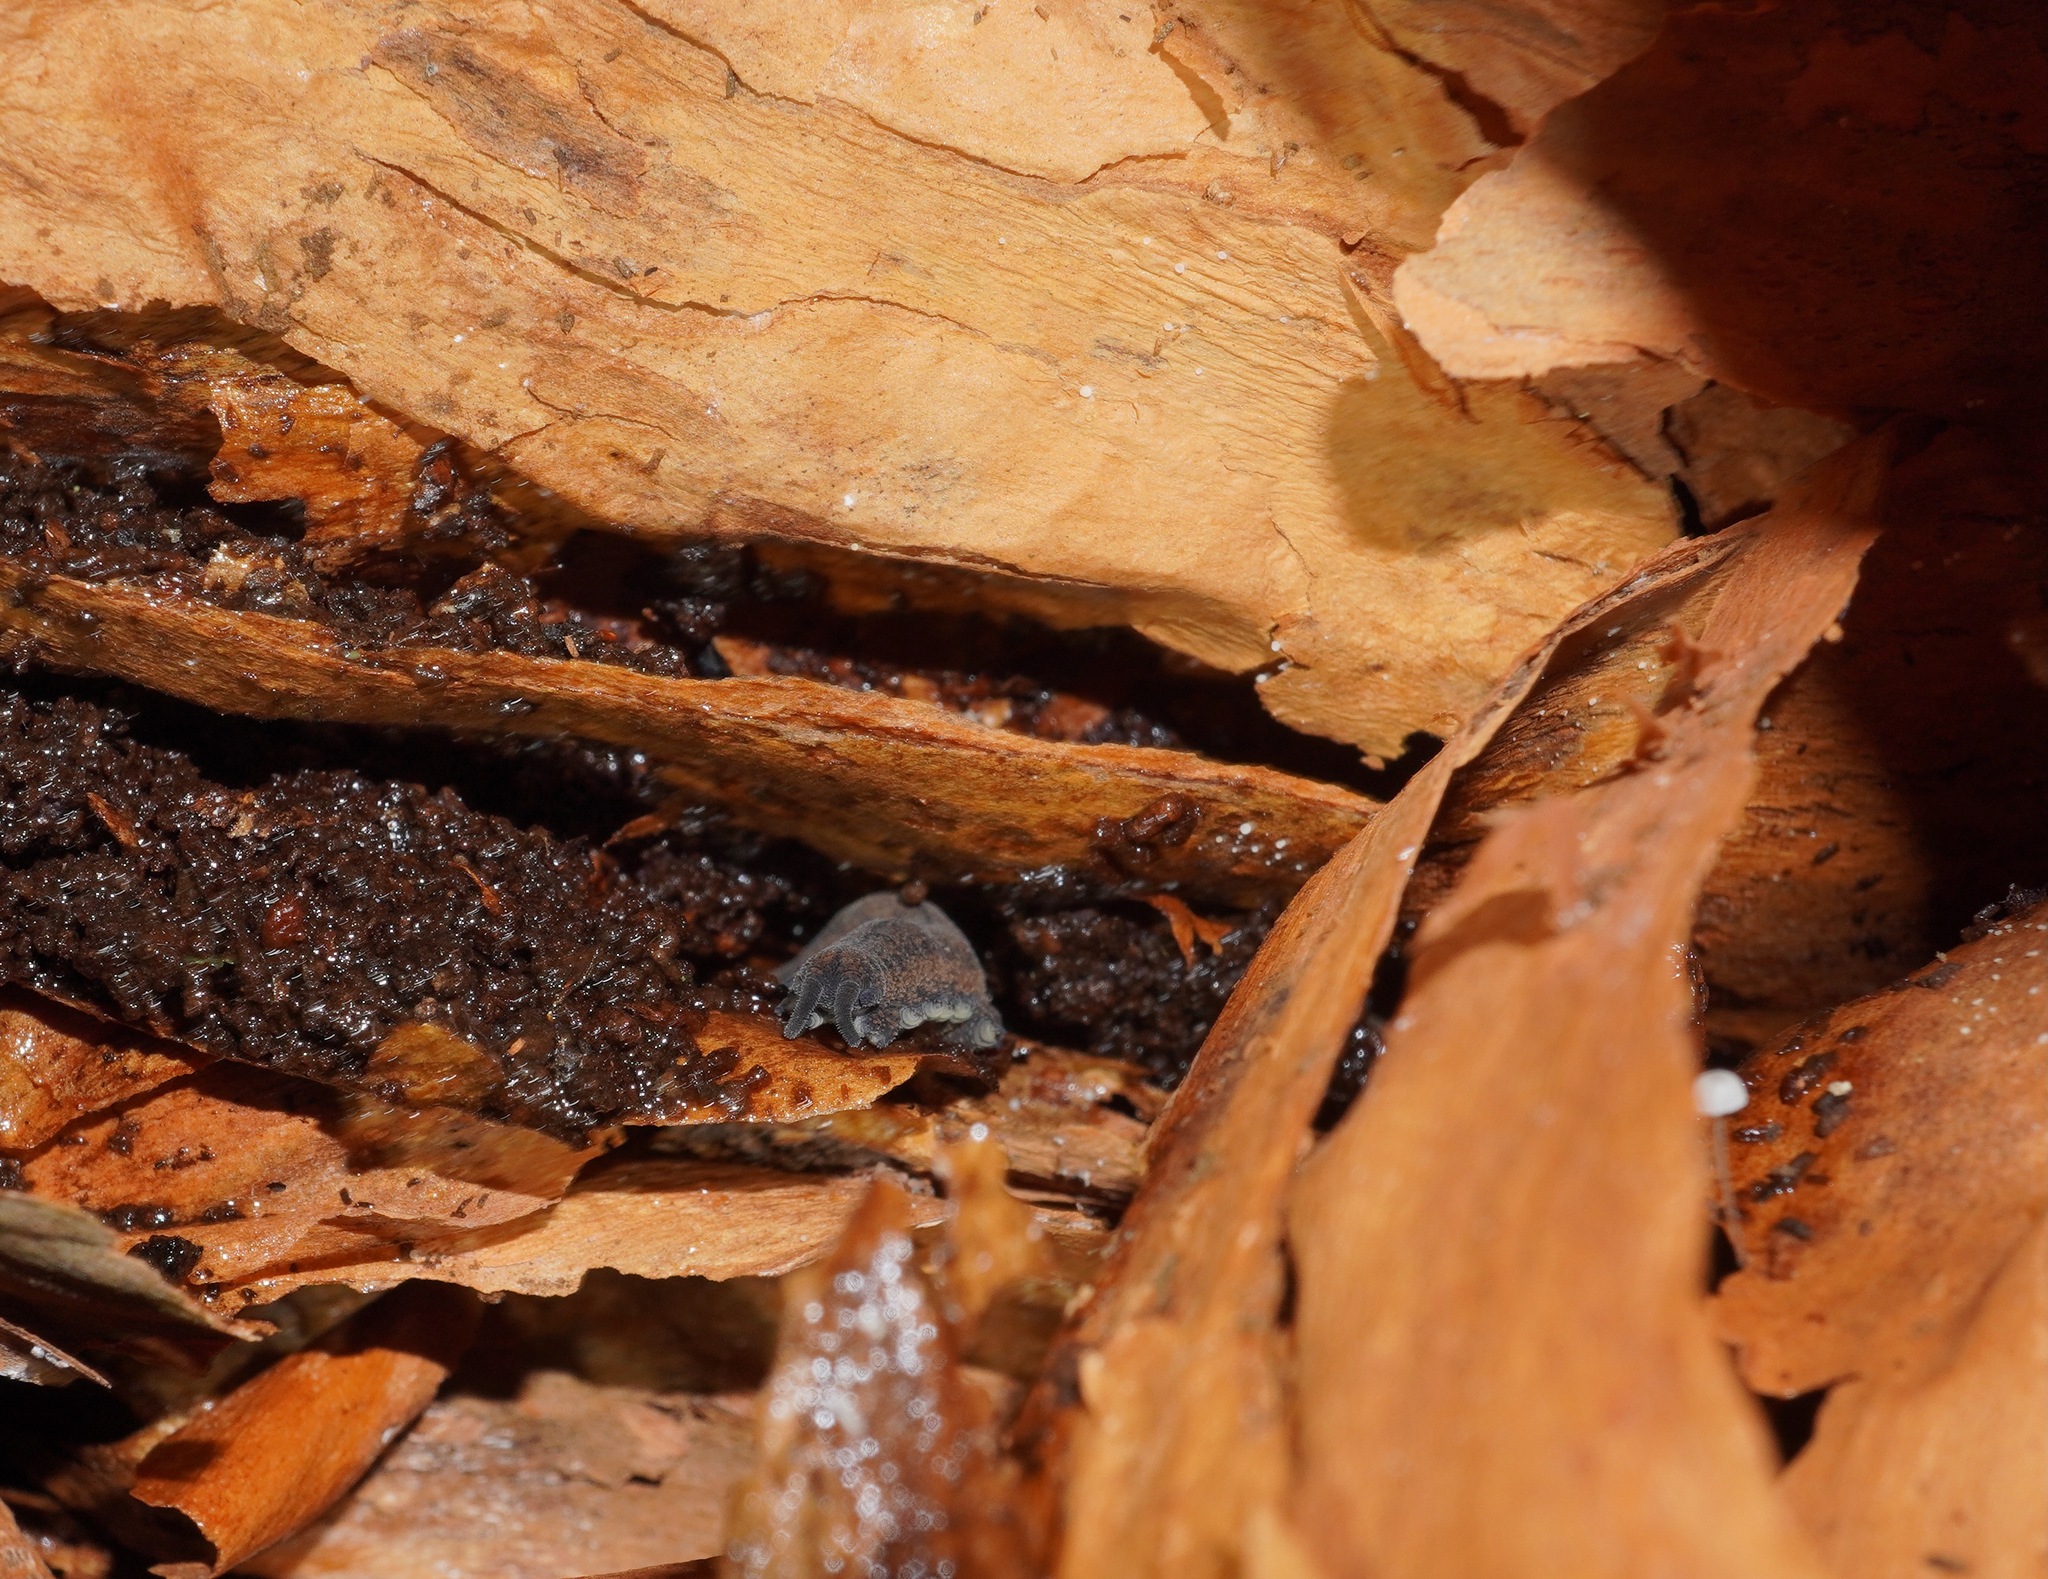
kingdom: Animalia
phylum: Onychophora
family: Peripatopsidae
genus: Peripatoides
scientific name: Peripatoides
